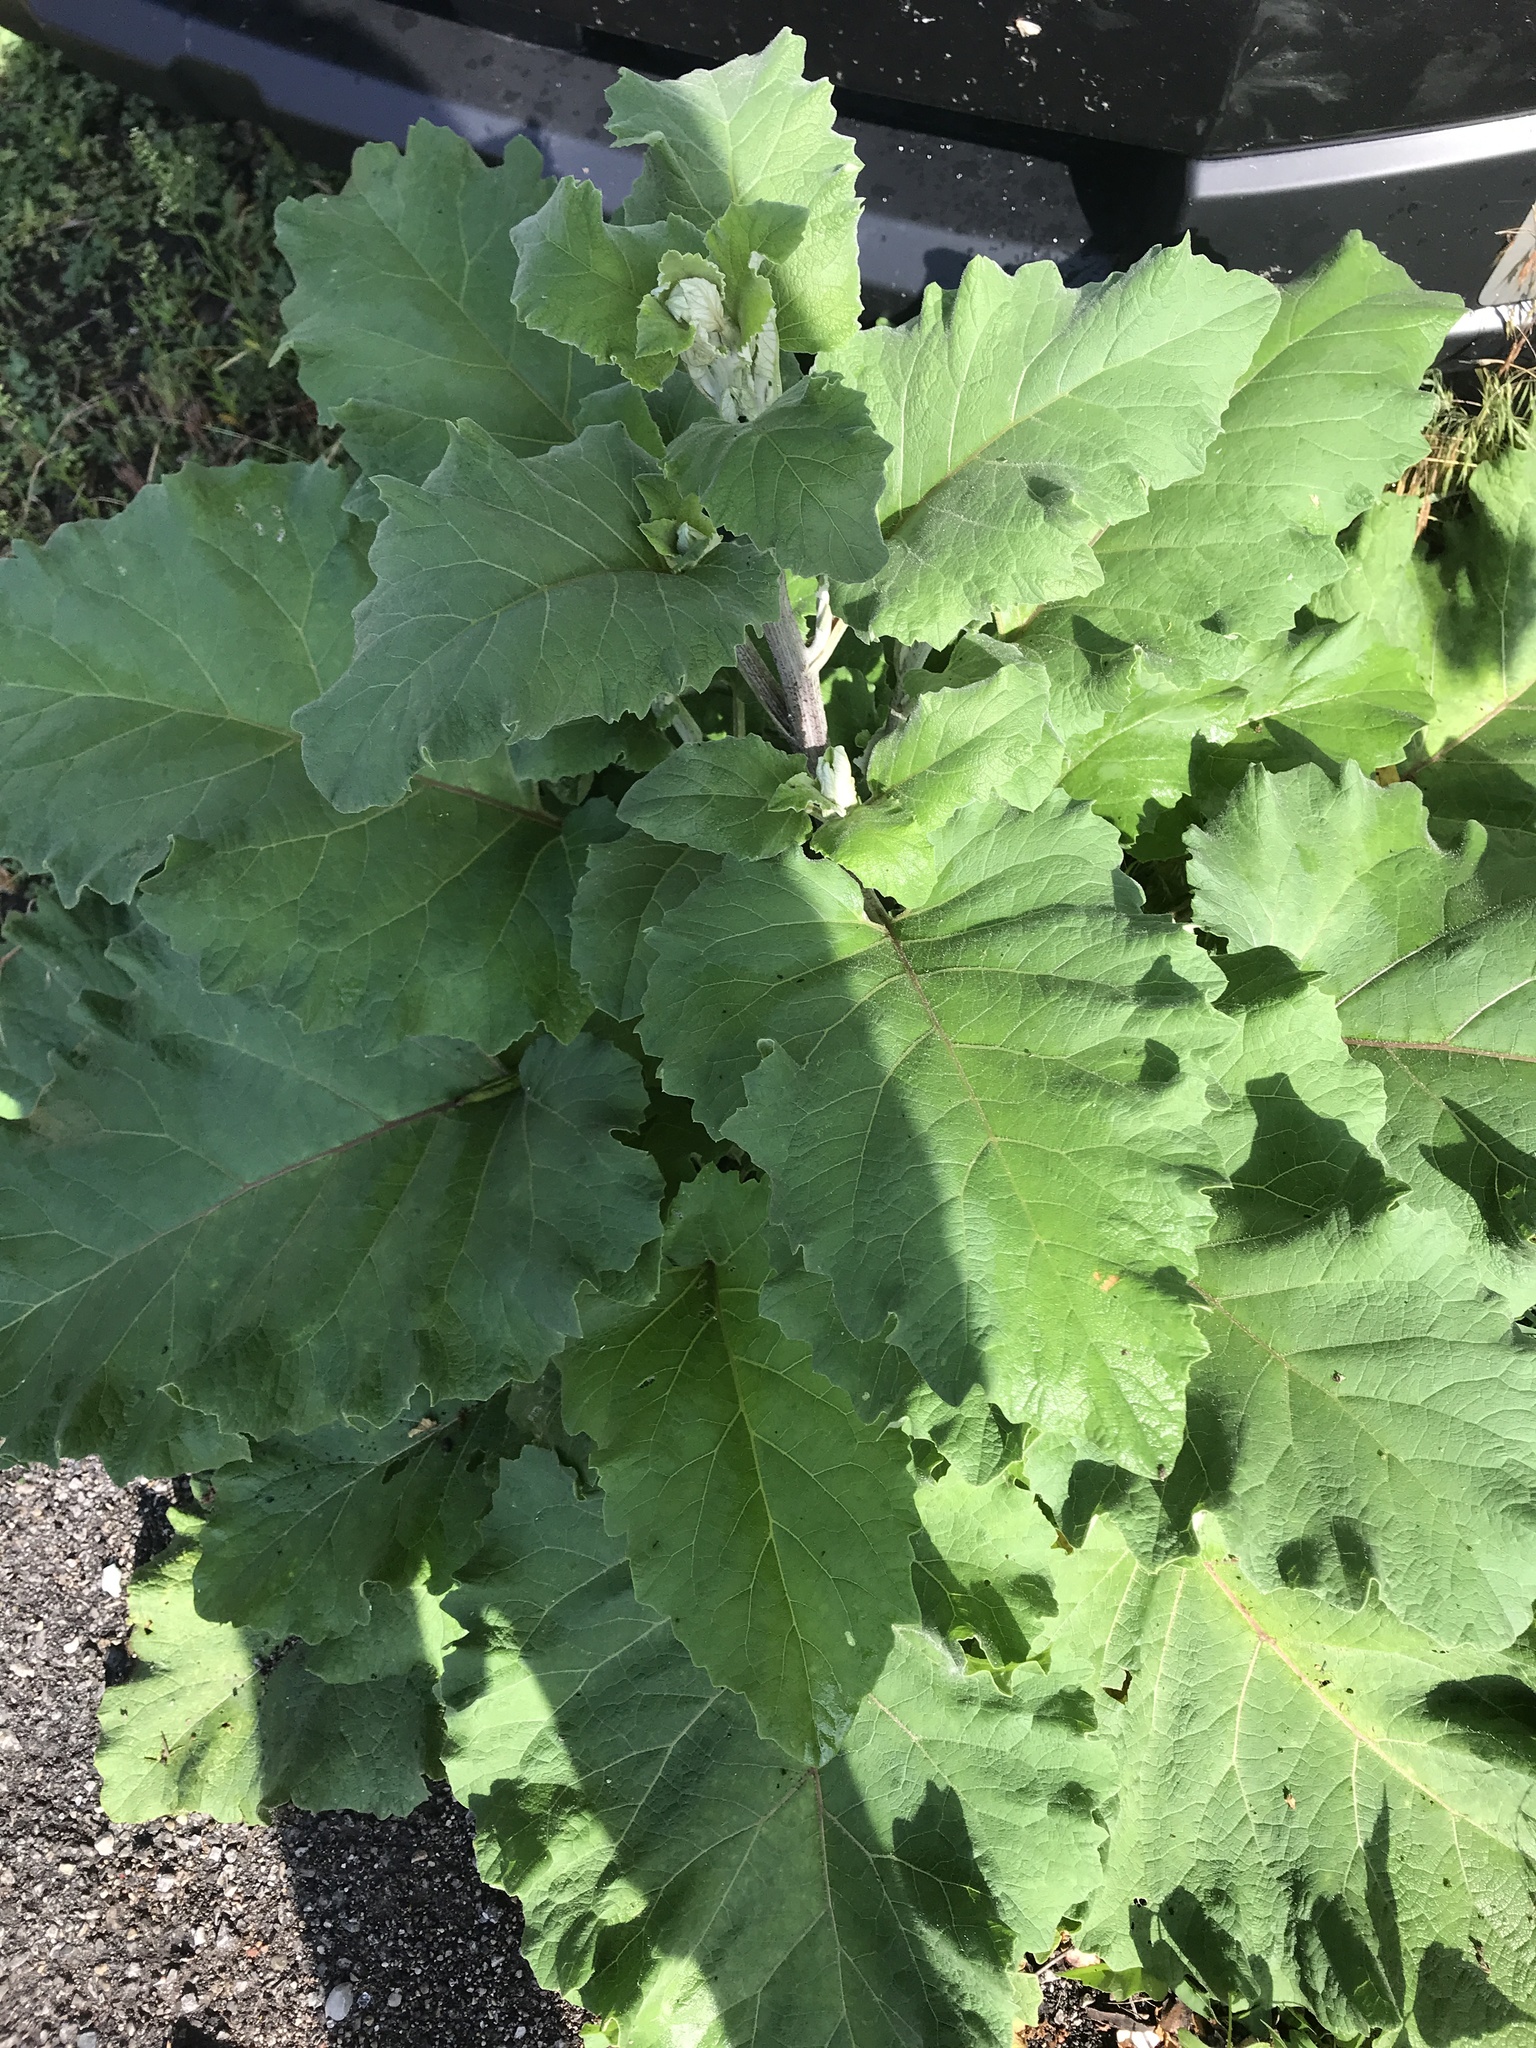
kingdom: Plantae
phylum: Tracheophyta
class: Magnoliopsida
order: Asterales
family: Asteraceae
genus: Arctium
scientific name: Arctium
